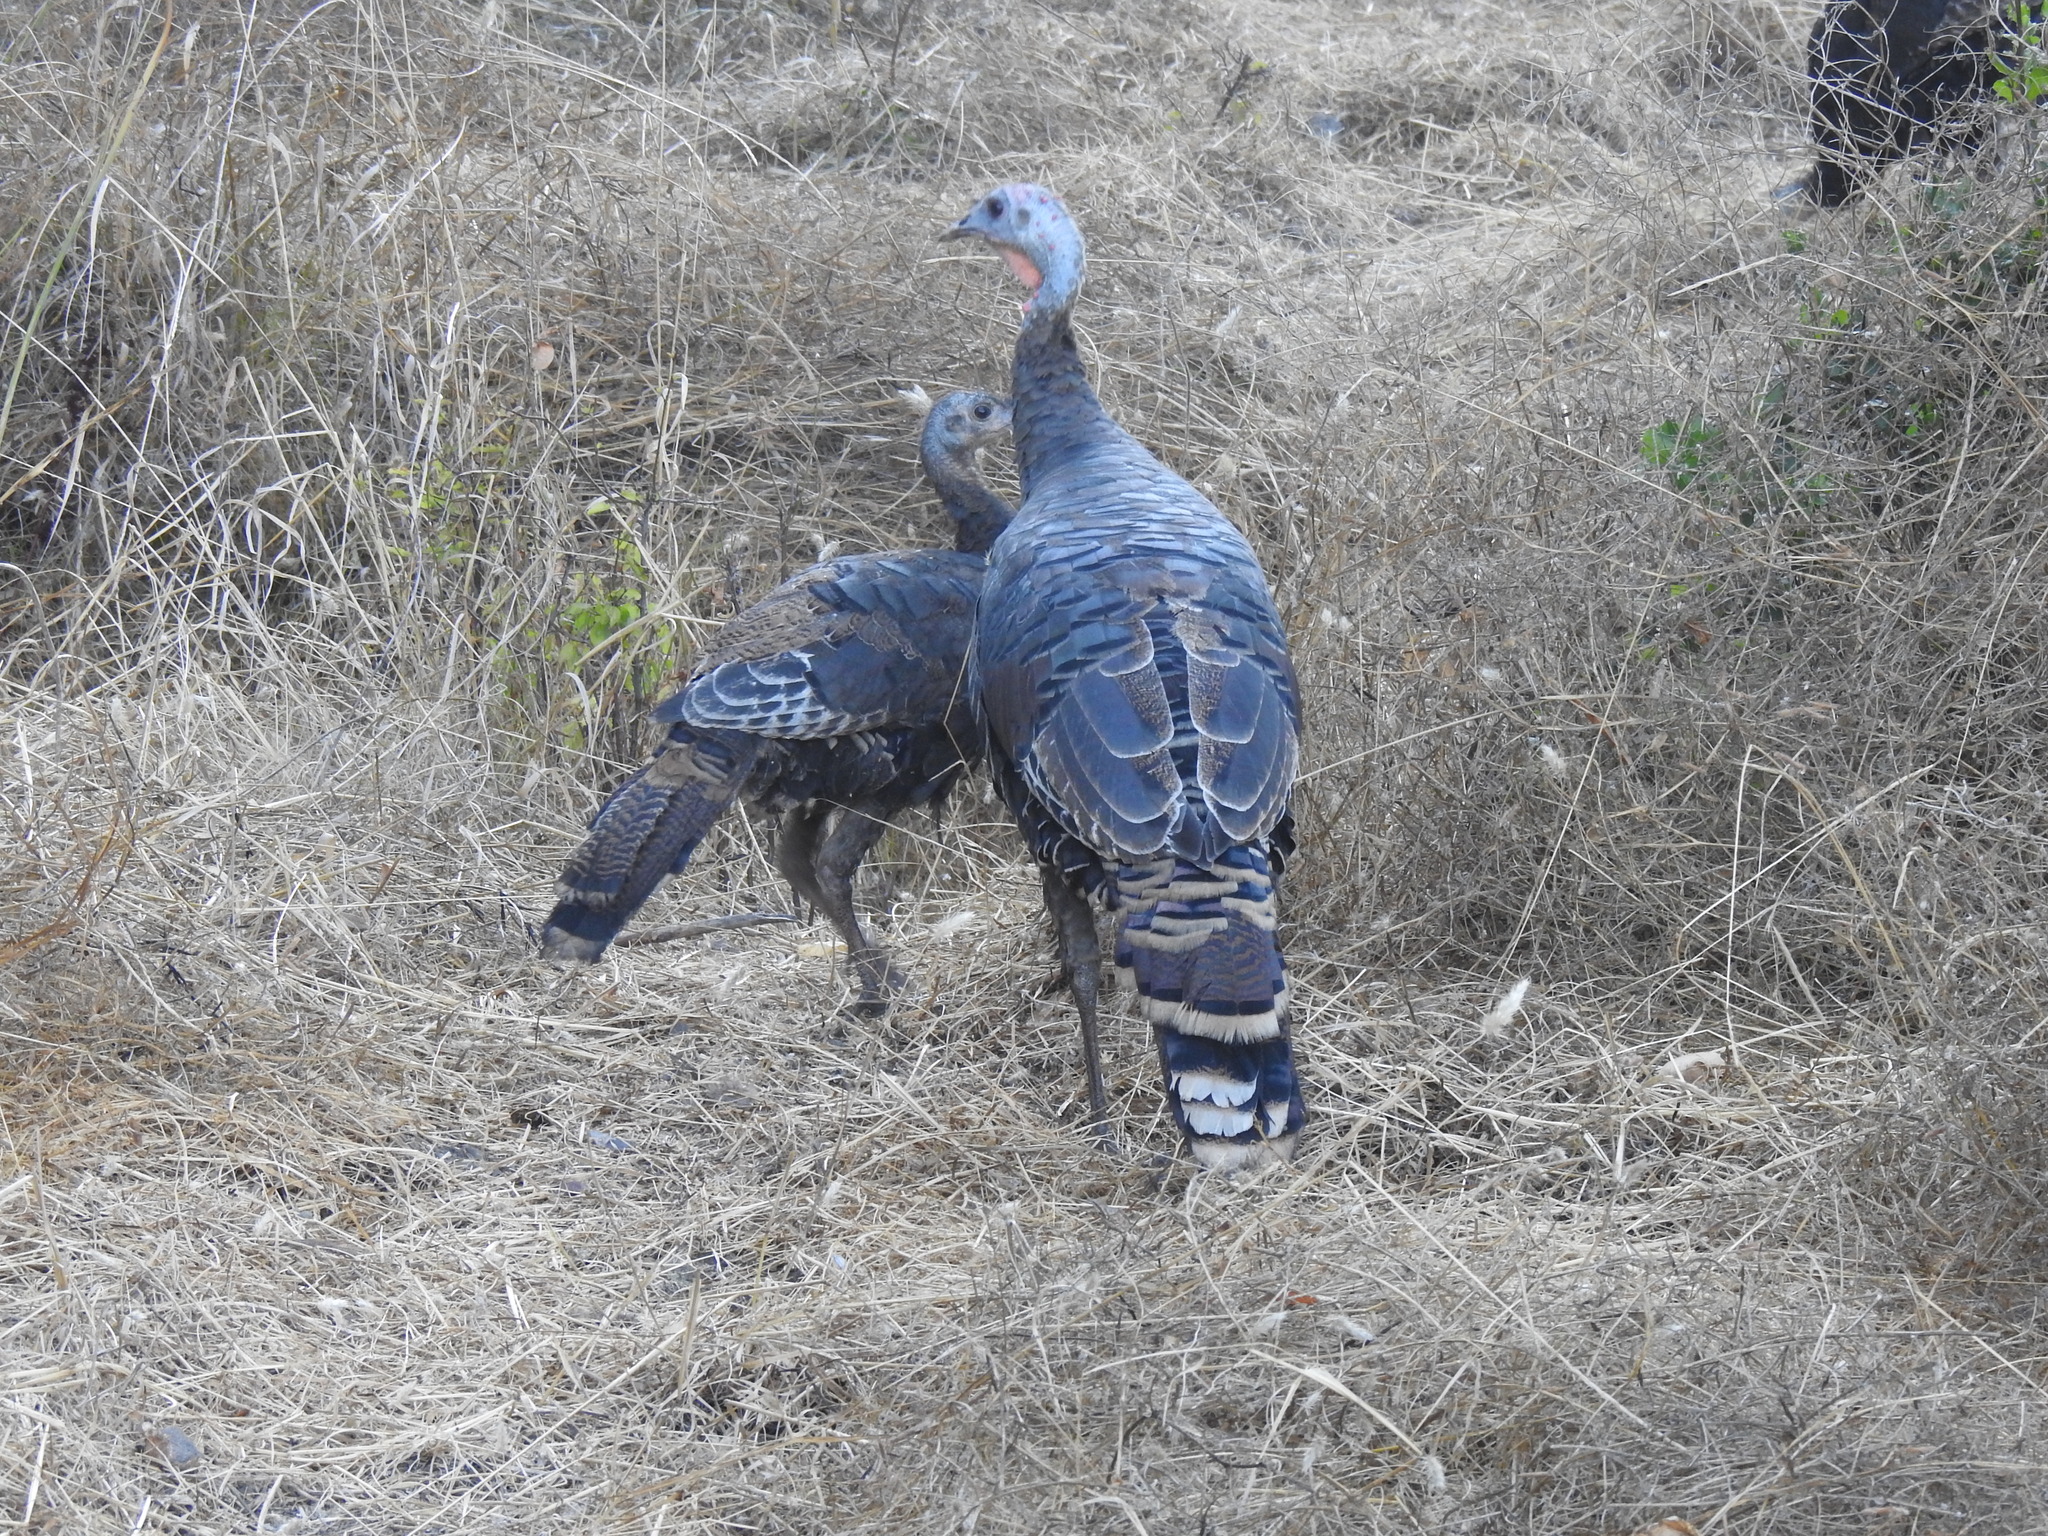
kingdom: Animalia
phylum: Chordata
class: Aves
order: Galliformes
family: Phasianidae
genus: Meleagris
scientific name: Meleagris gallopavo
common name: Wild turkey
